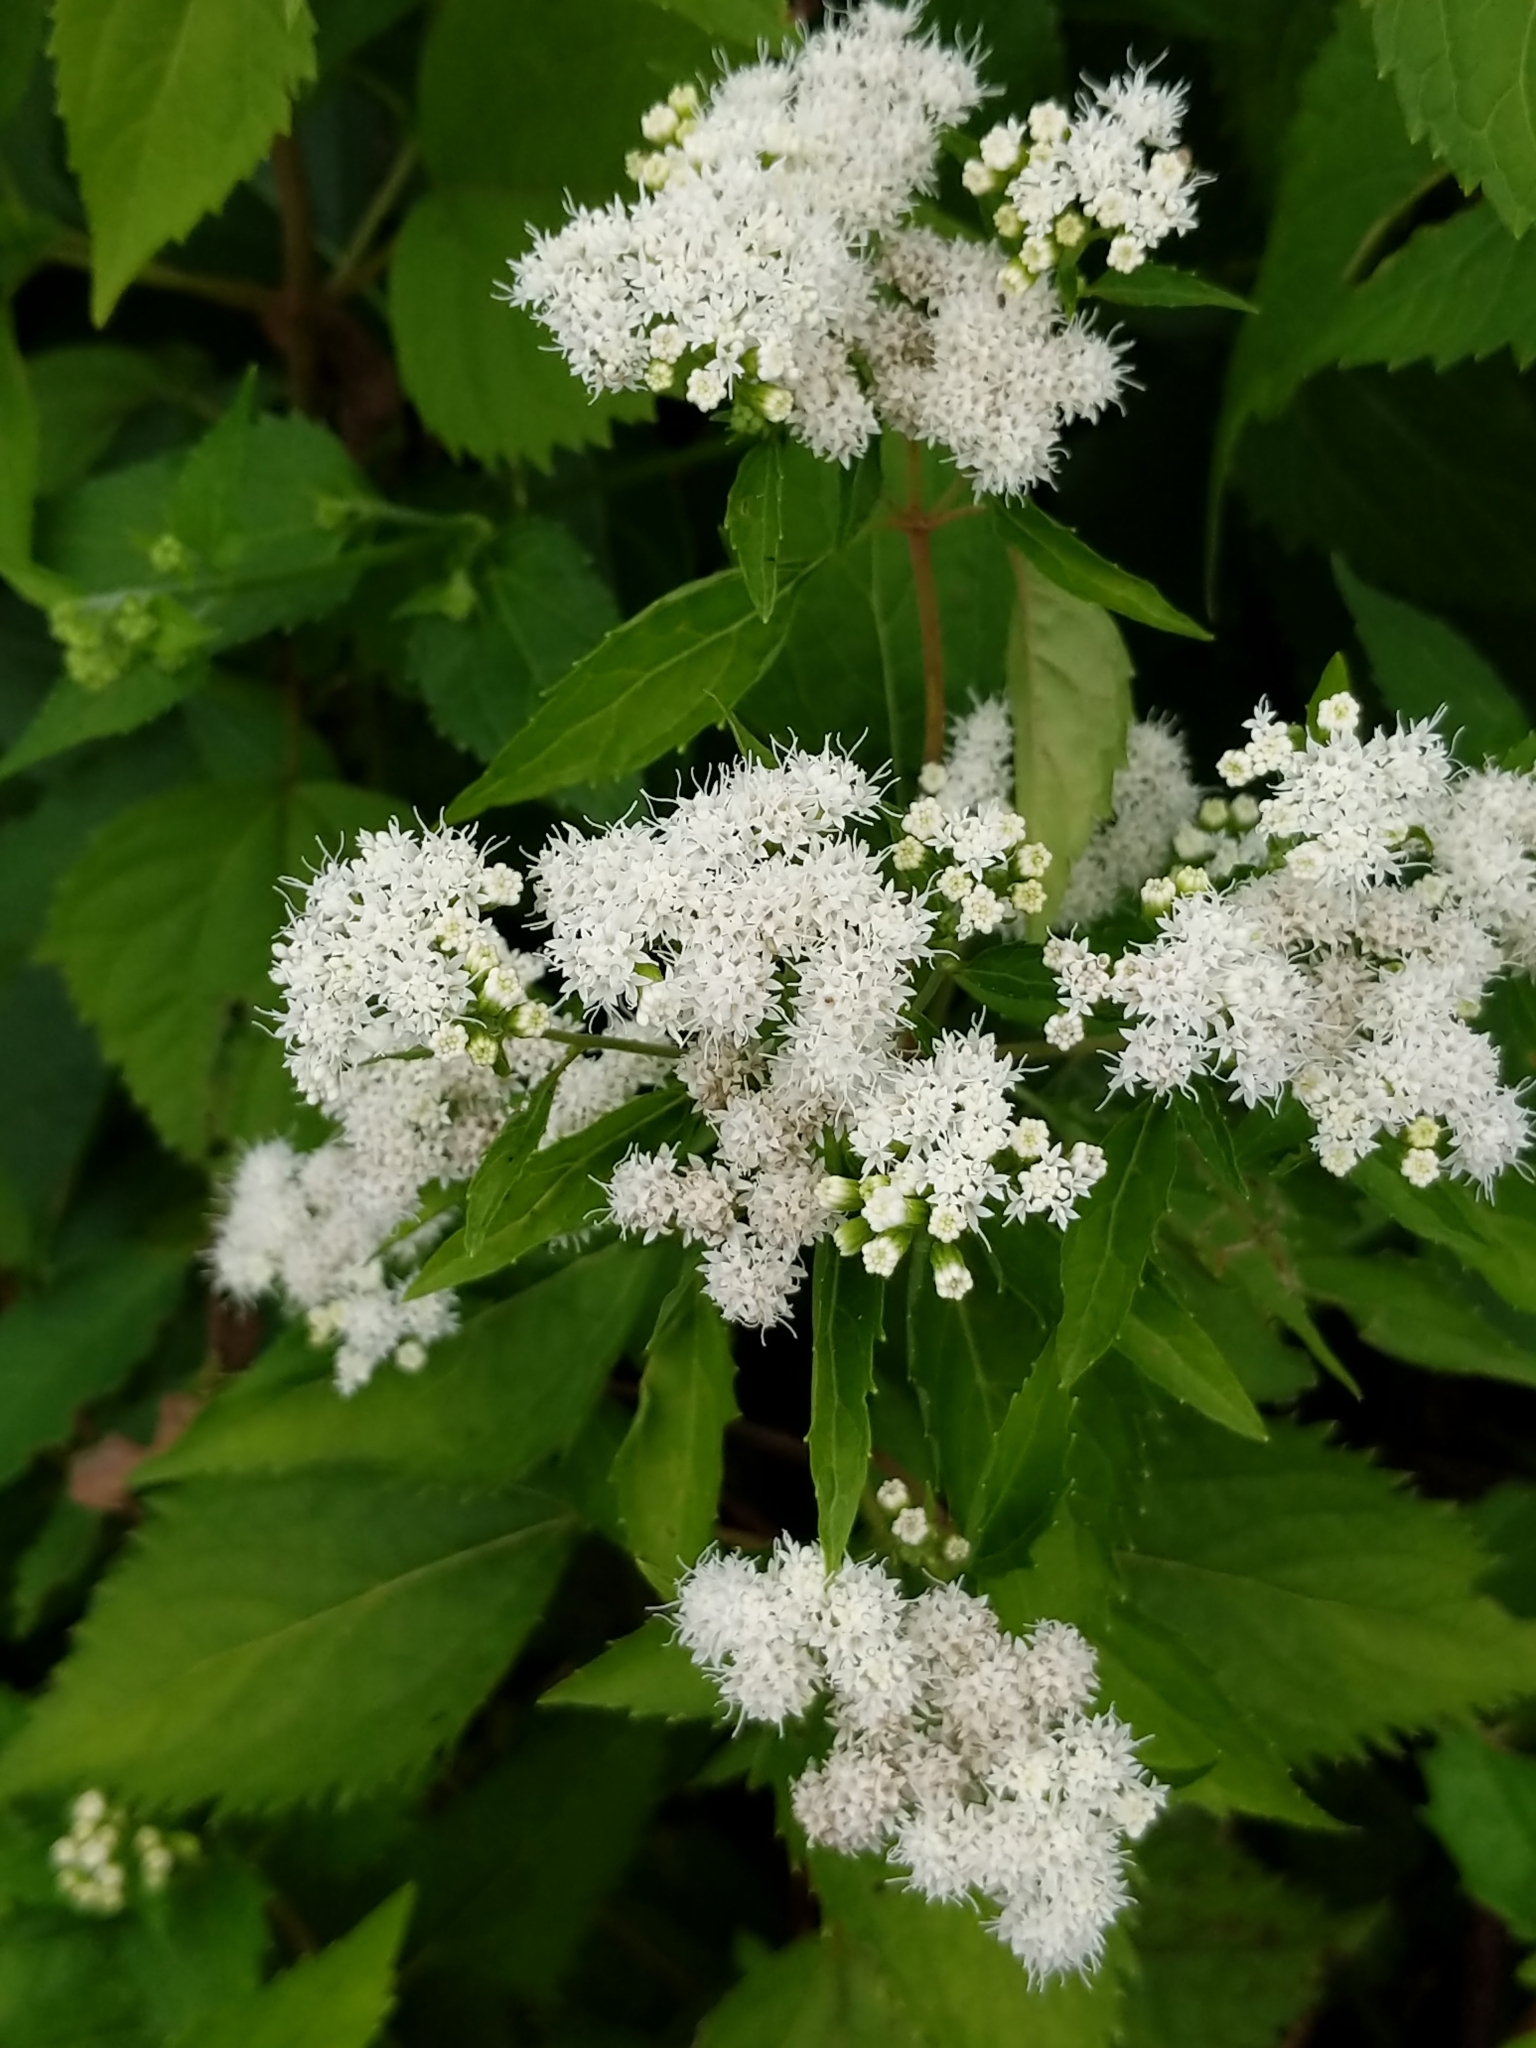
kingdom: Plantae
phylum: Tracheophyta
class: Magnoliopsida
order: Asterales
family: Asteraceae
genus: Ageratina
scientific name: Ageratina altissima
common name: White snakeroot
